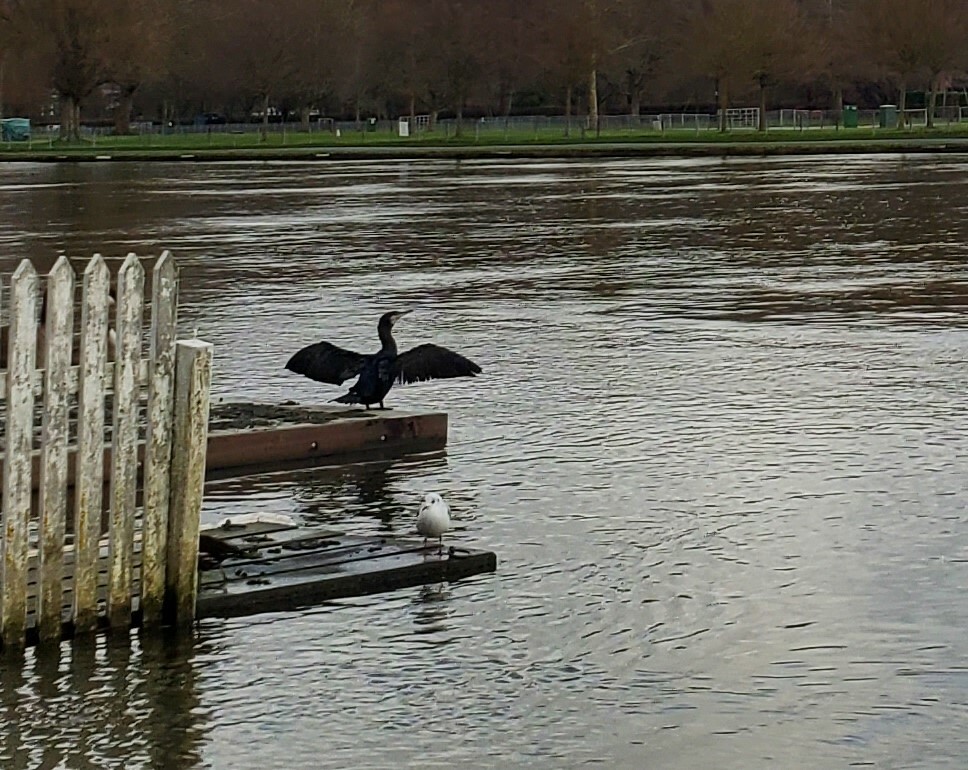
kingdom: Animalia
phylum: Chordata
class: Aves
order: Suliformes
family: Phalacrocoracidae
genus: Phalacrocorax
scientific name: Phalacrocorax carbo
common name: Great cormorant
